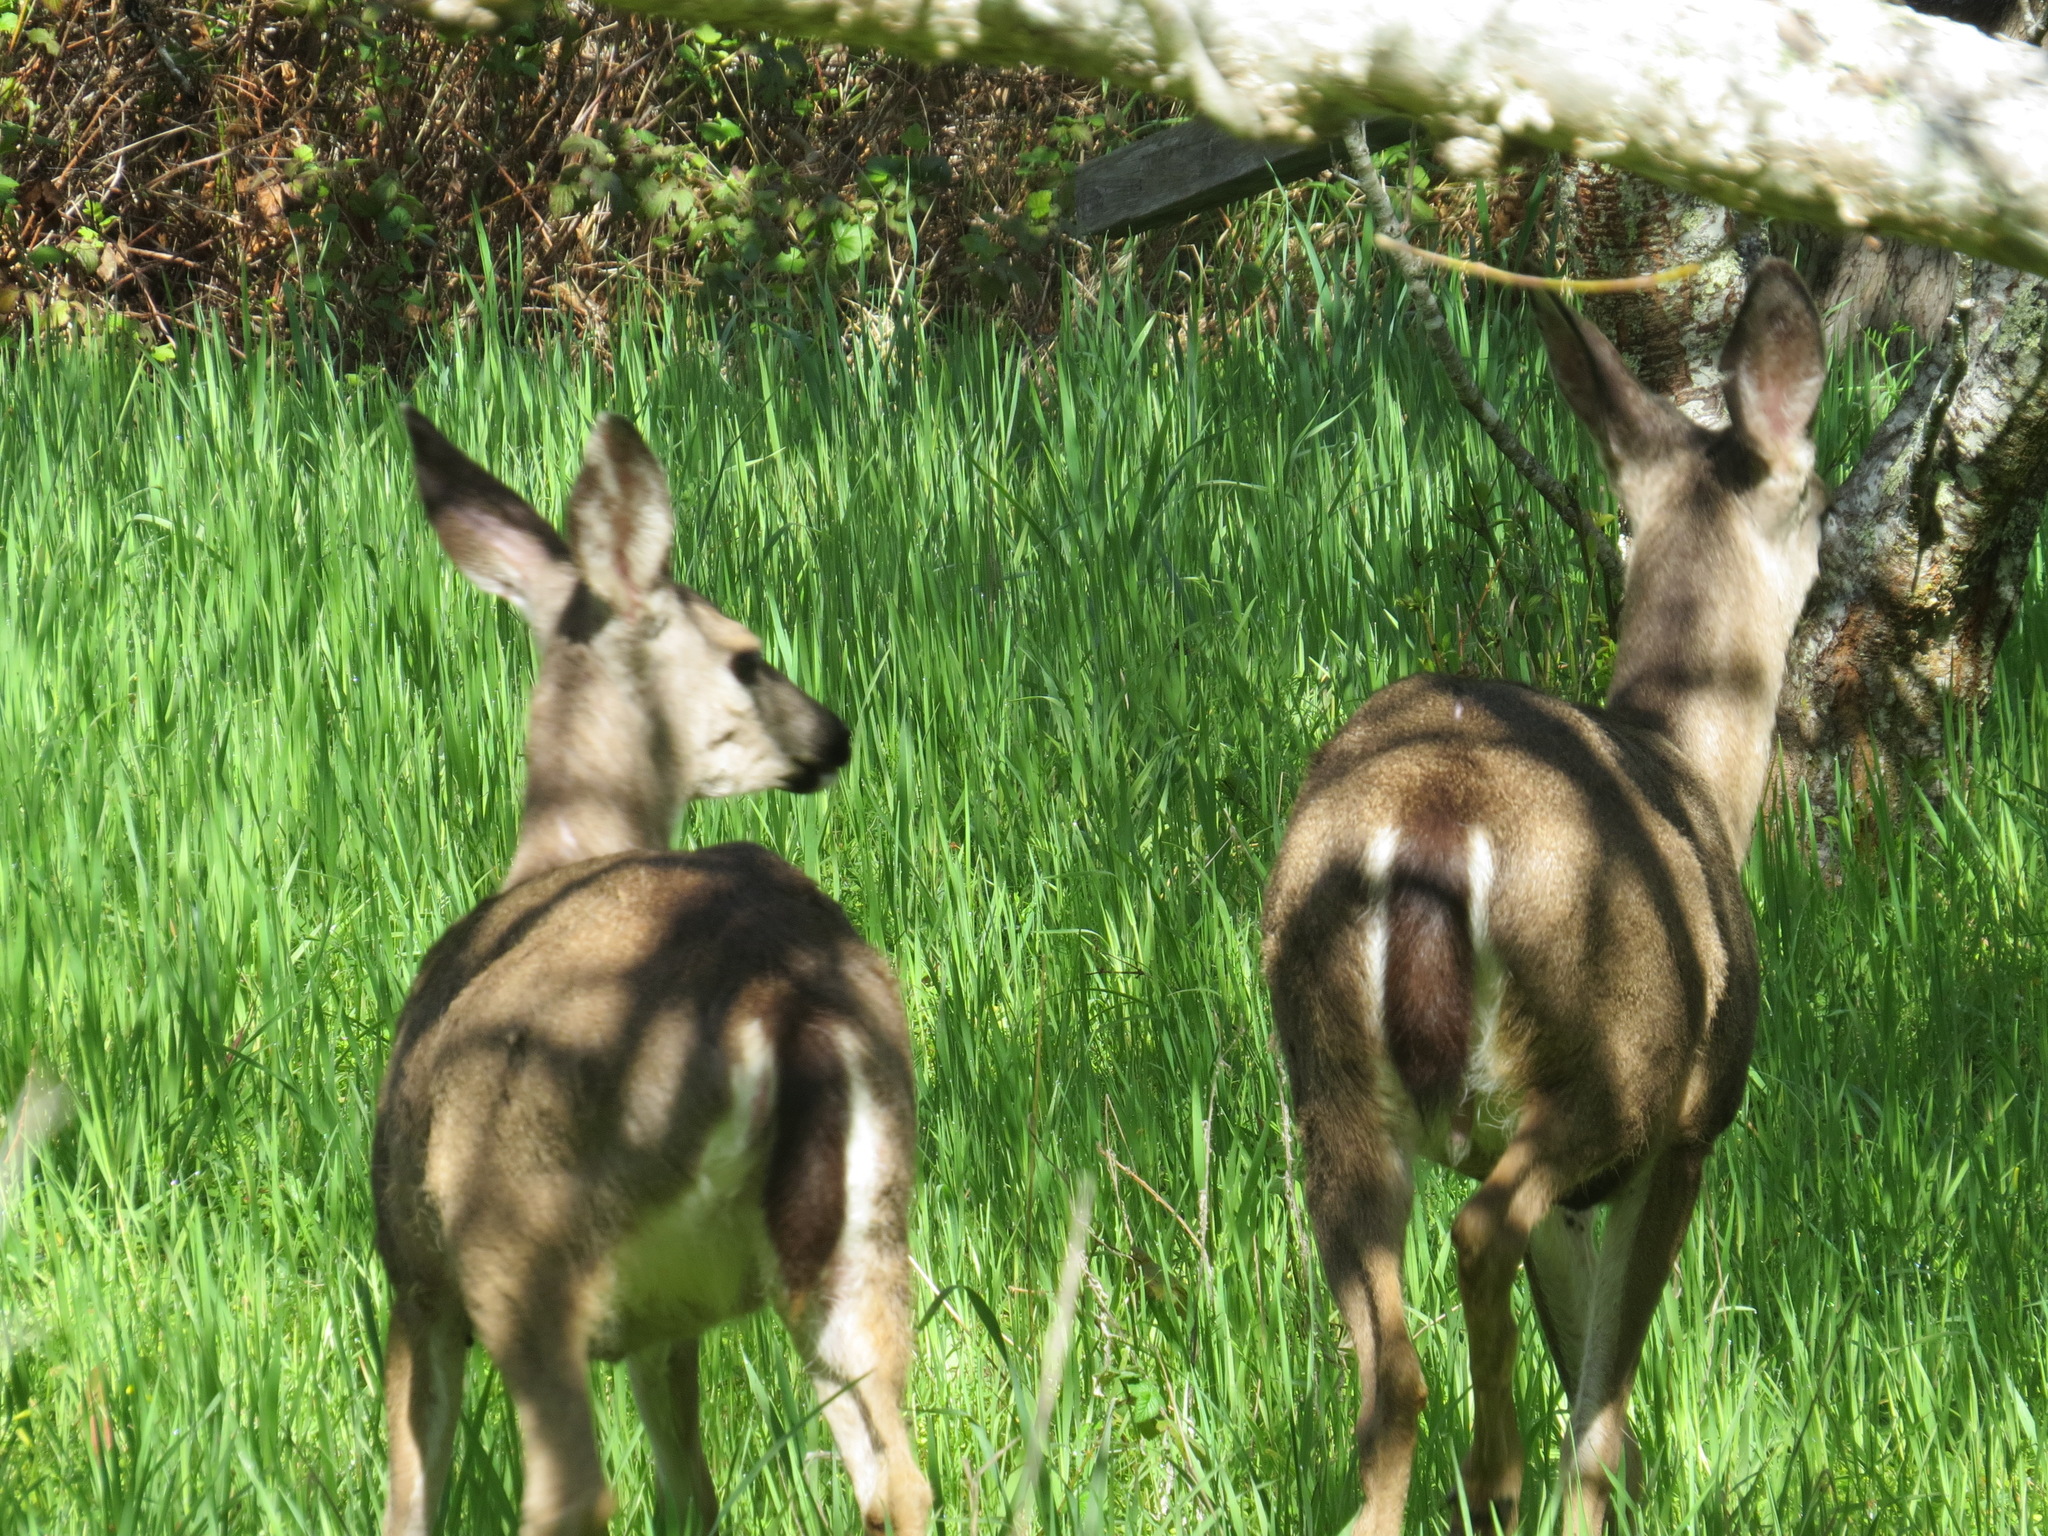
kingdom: Animalia
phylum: Chordata
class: Mammalia
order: Artiodactyla
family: Cervidae
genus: Odocoileus
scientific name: Odocoileus hemionus
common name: Mule deer
